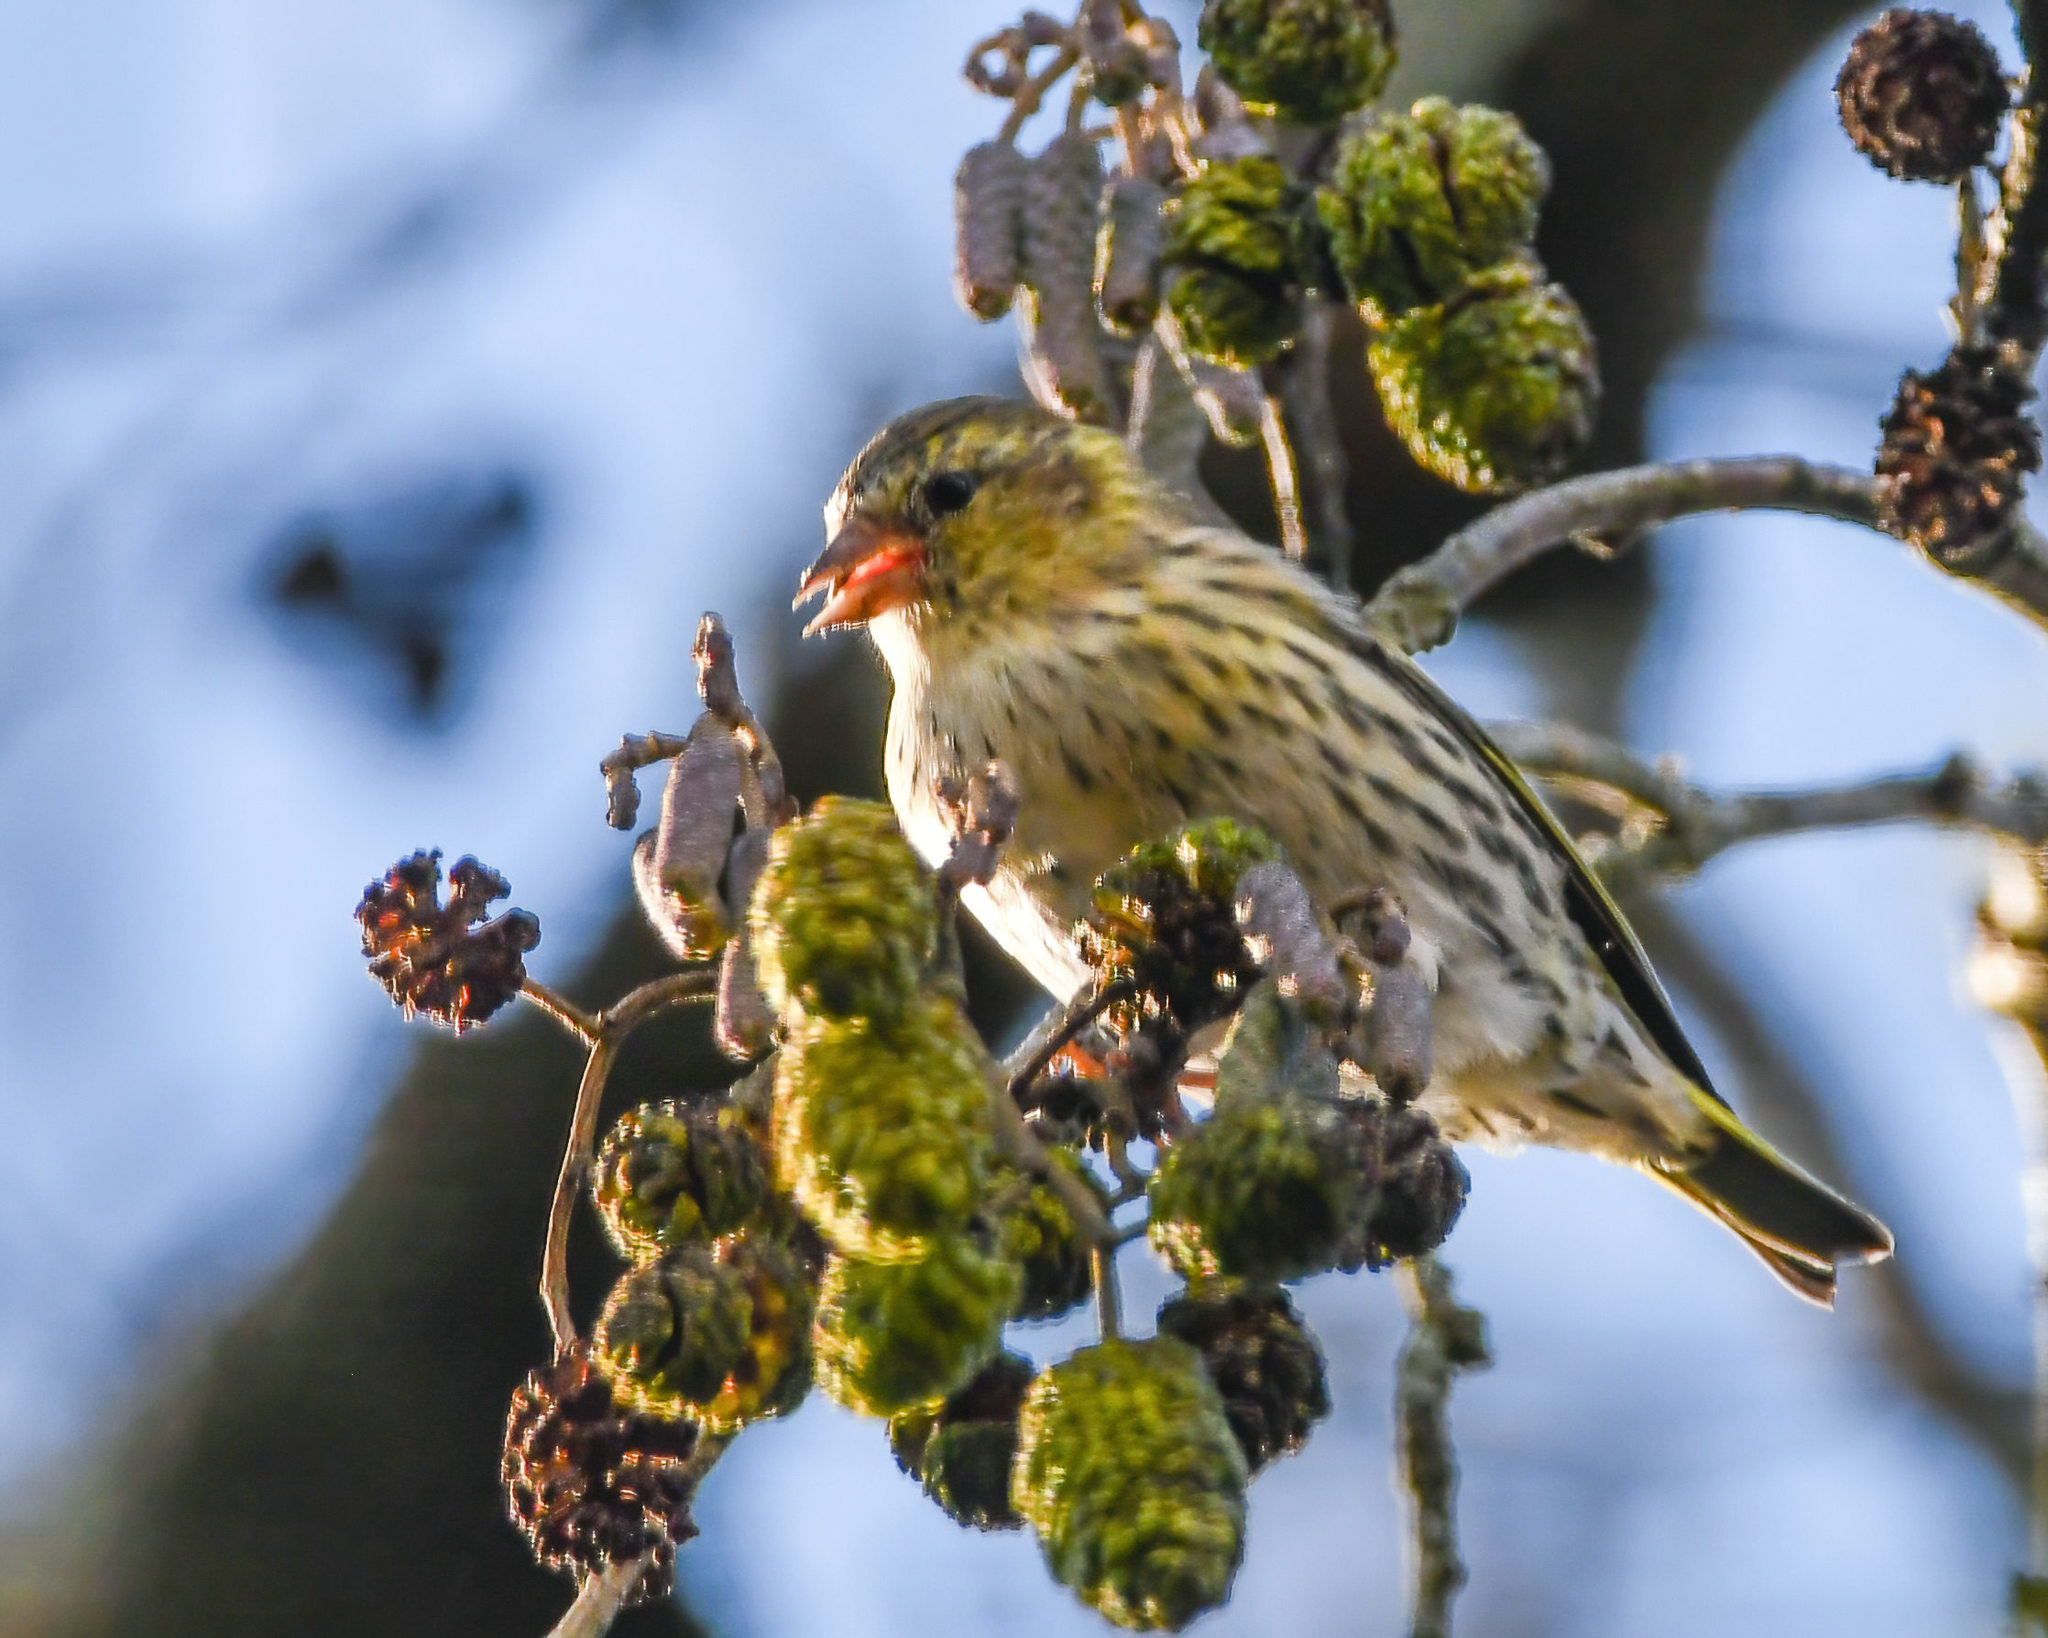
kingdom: Animalia
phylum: Chordata
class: Aves
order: Passeriformes
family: Fringillidae
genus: Spinus
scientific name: Spinus spinus
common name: Eurasian siskin
